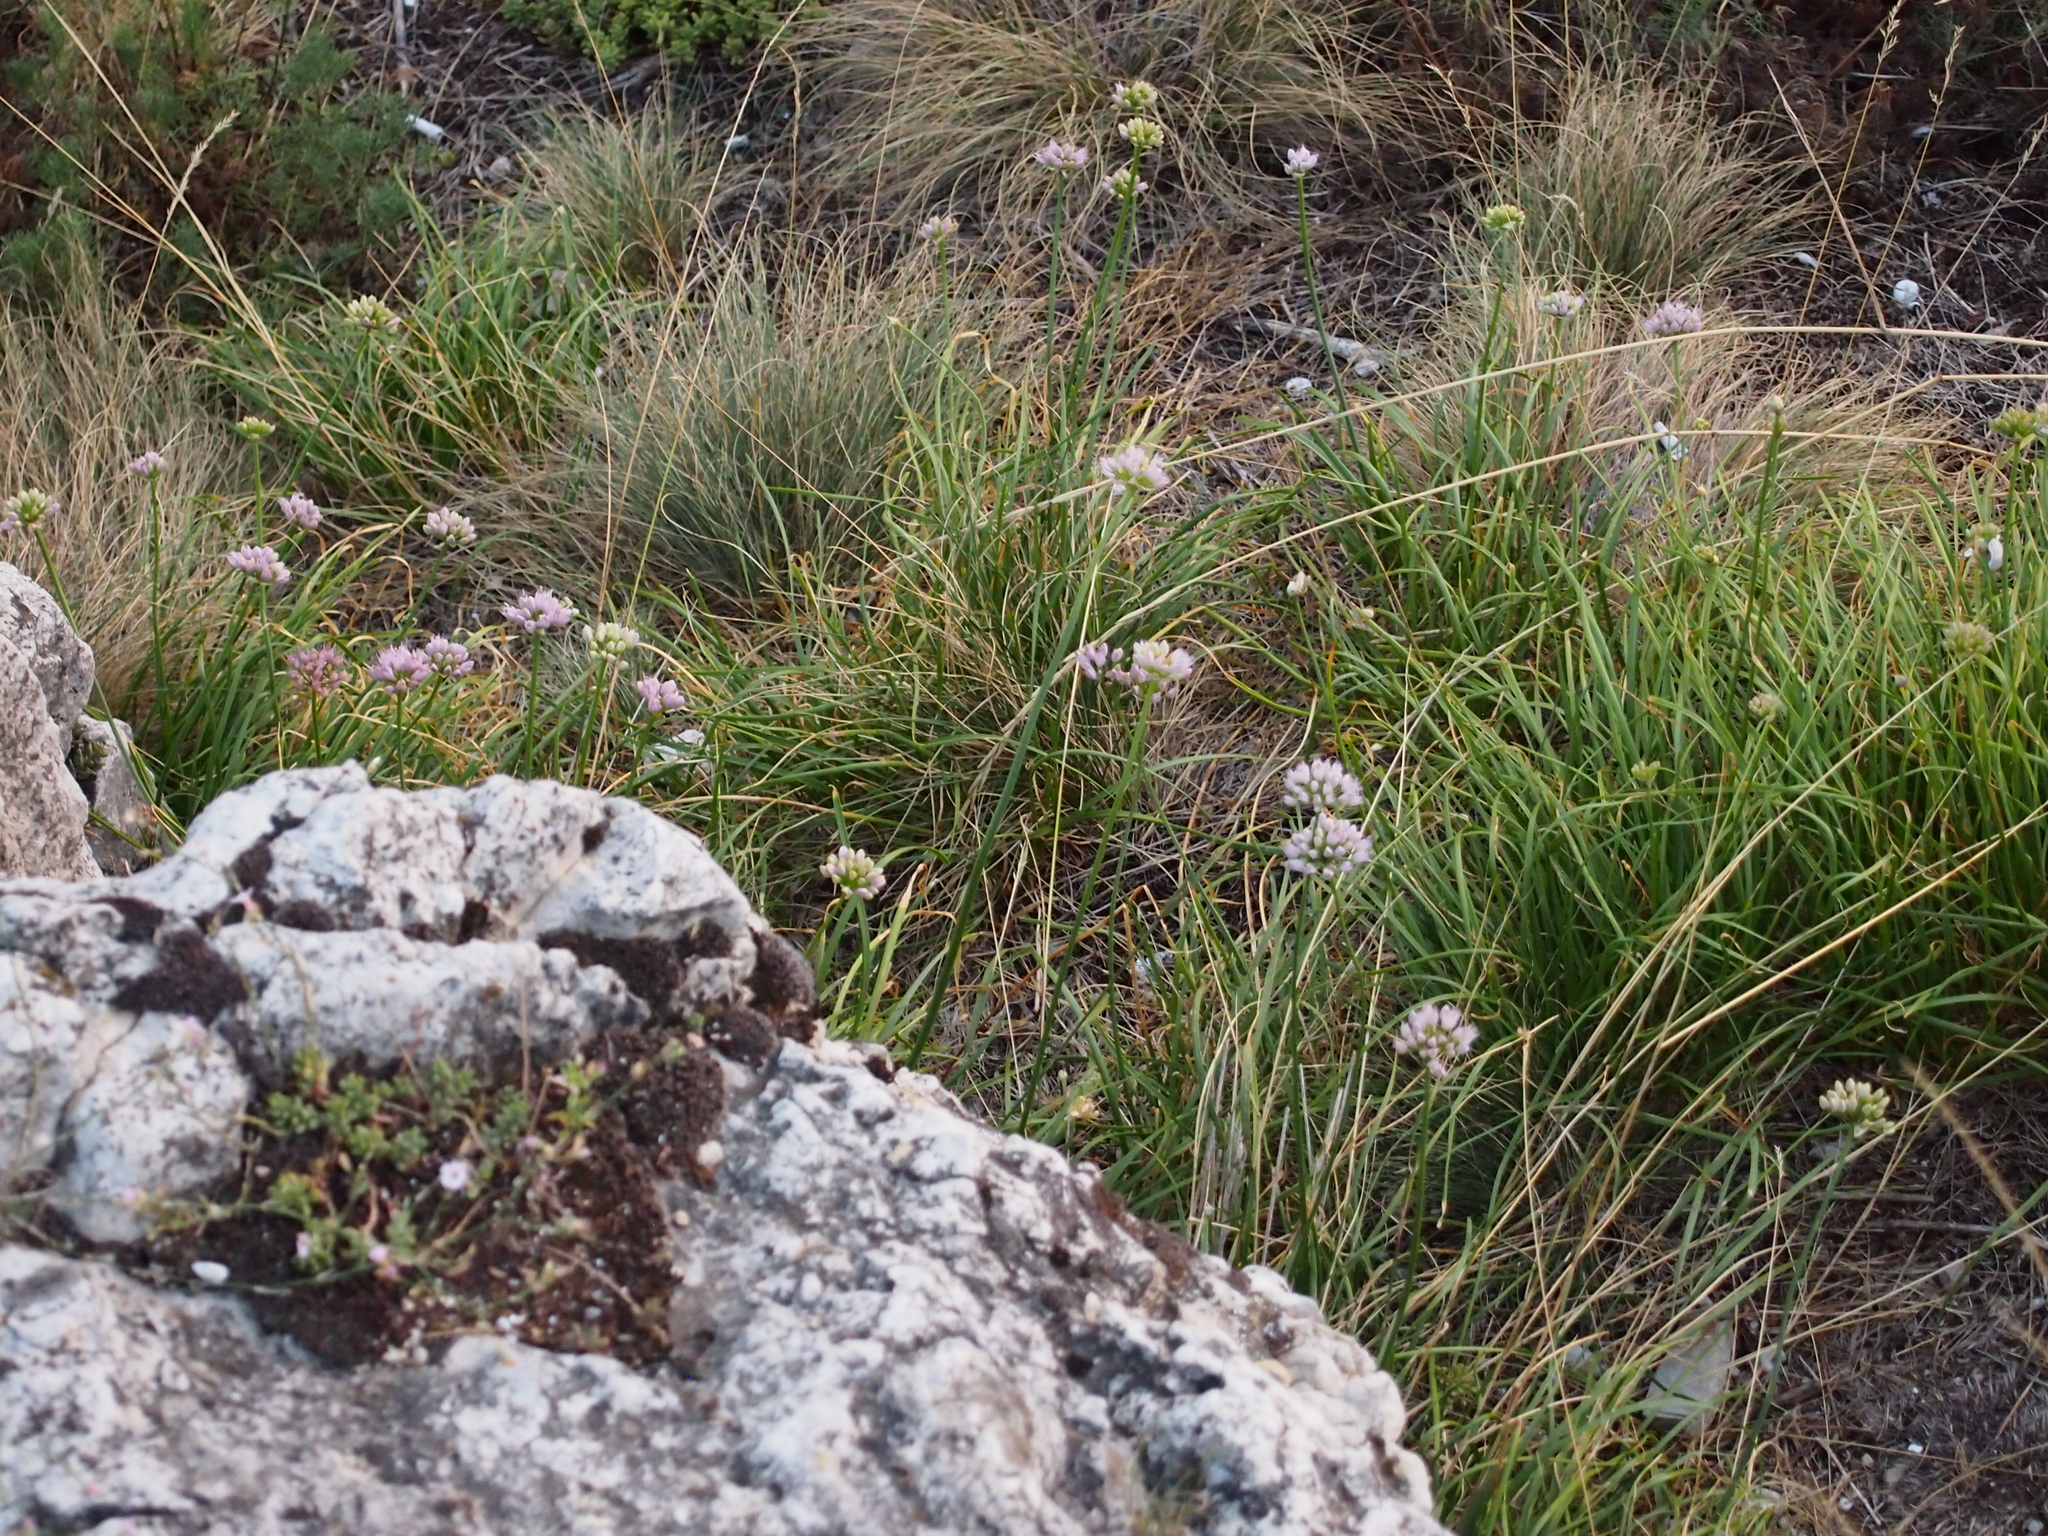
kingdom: Plantae
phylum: Tracheophyta
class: Liliopsida
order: Asparagales
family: Amaryllidaceae
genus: Allium
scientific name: Allium lusitanicum
